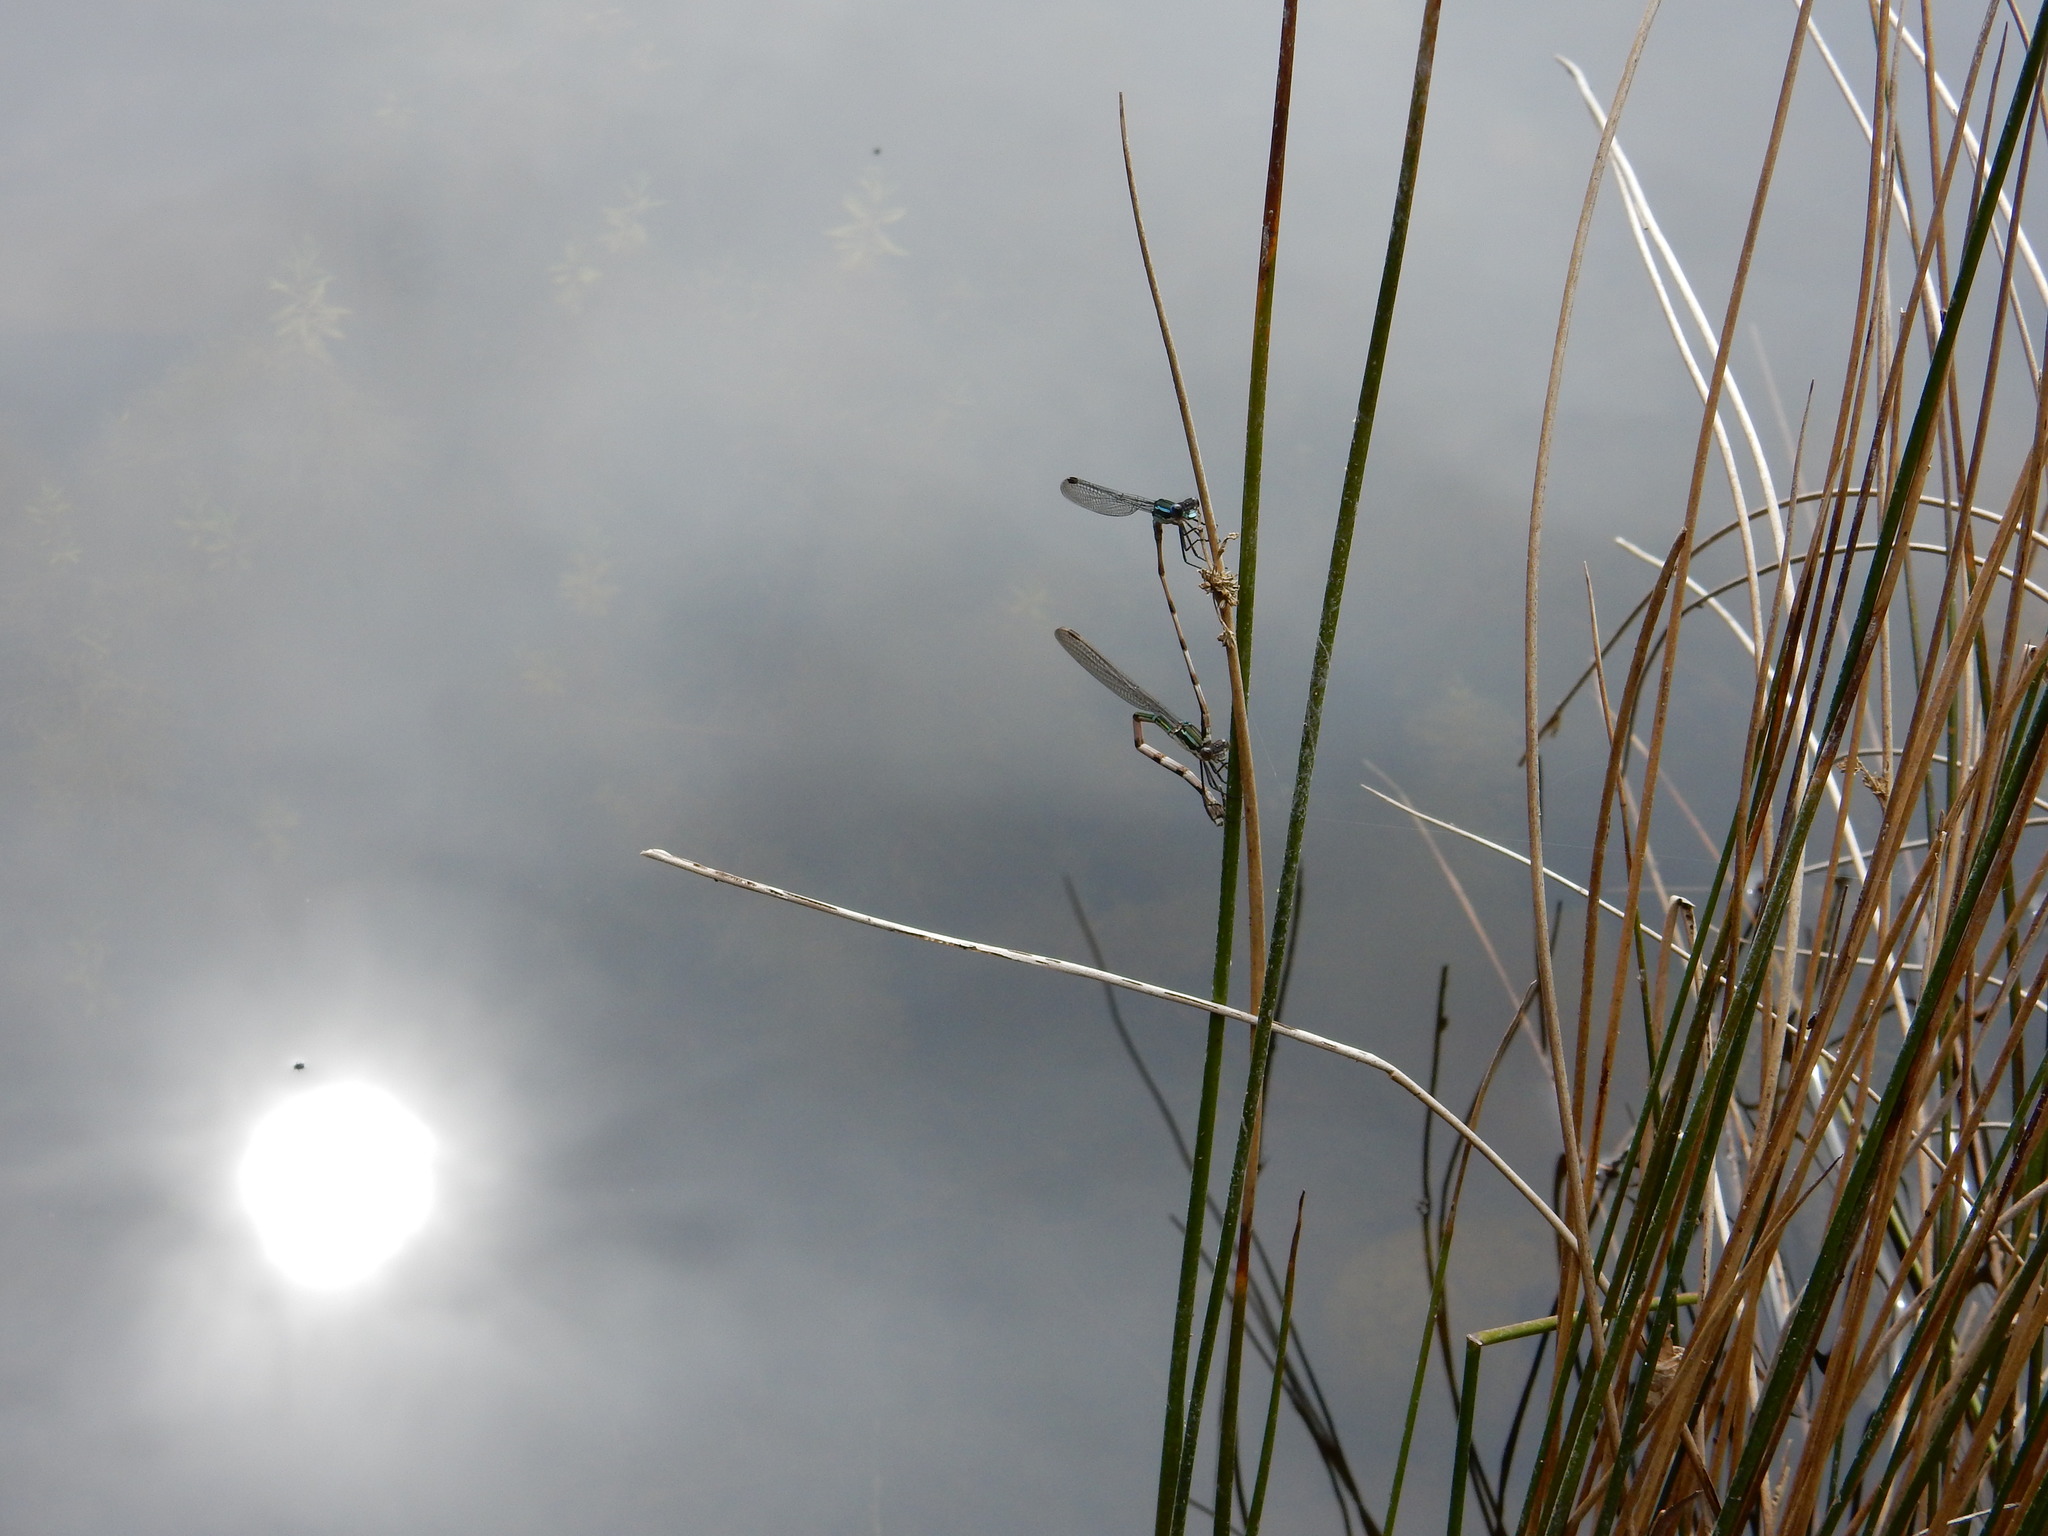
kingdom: Animalia
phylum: Arthropoda
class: Insecta
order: Odonata
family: Lestidae
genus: Austrolestes
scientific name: Austrolestes colensonis
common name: Blue damselfly
